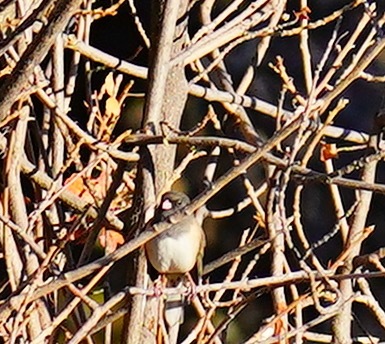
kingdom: Animalia
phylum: Chordata
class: Aves
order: Passeriformes
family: Passerellidae
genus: Junco
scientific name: Junco hyemalis
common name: Dark-eyed junco
